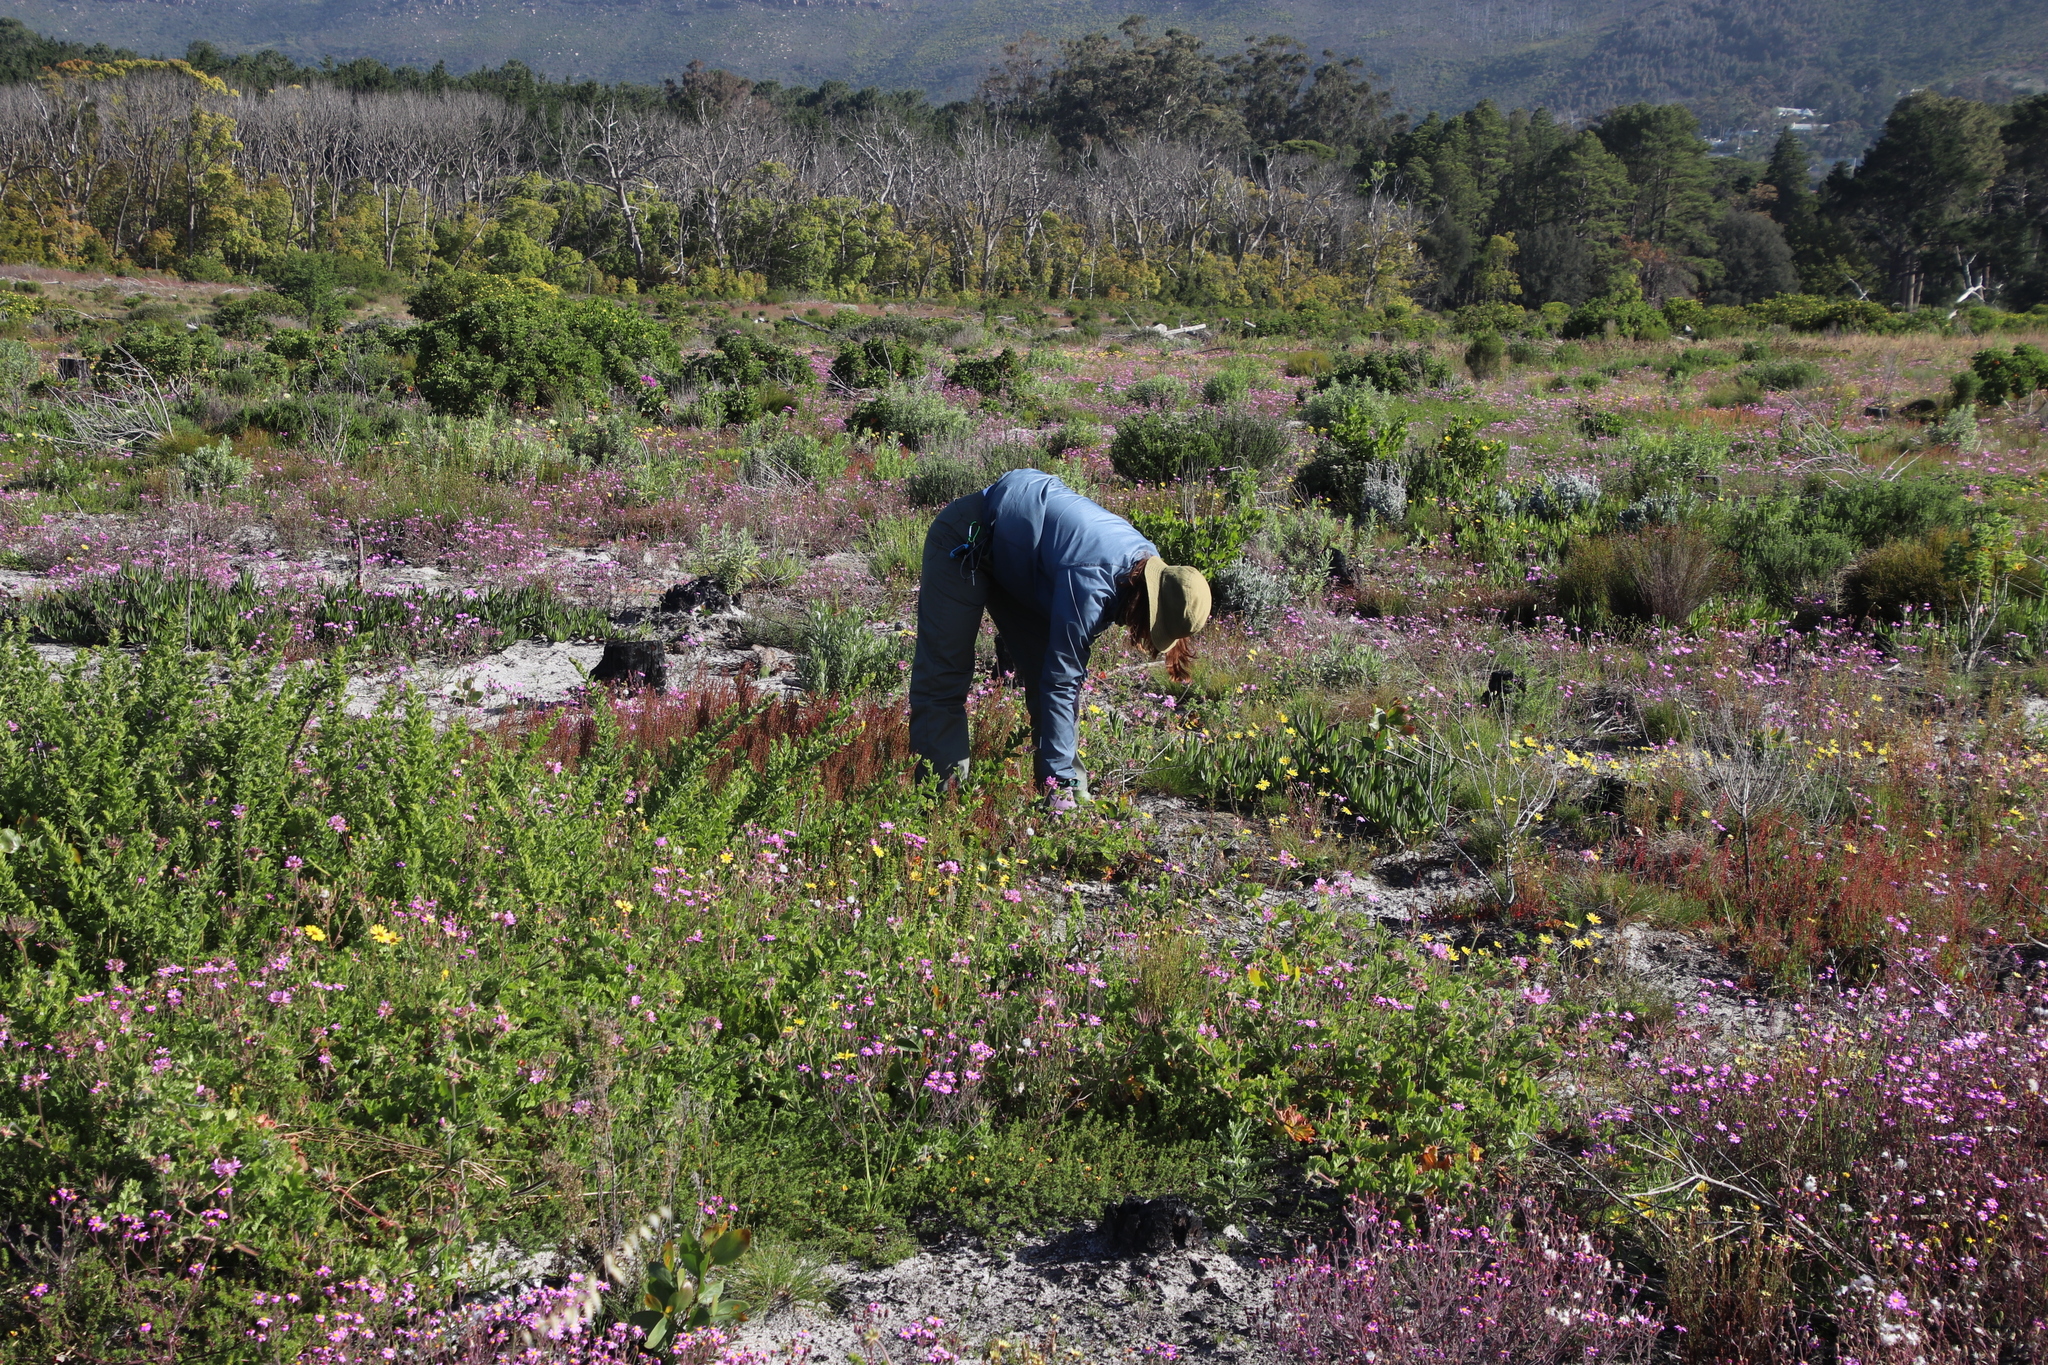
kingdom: Plantae
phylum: Tracheophyta
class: Magnoliopsida
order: Fabales
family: Fabaceae
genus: Acacia
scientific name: Acacia pycnantha
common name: Golden wattle
